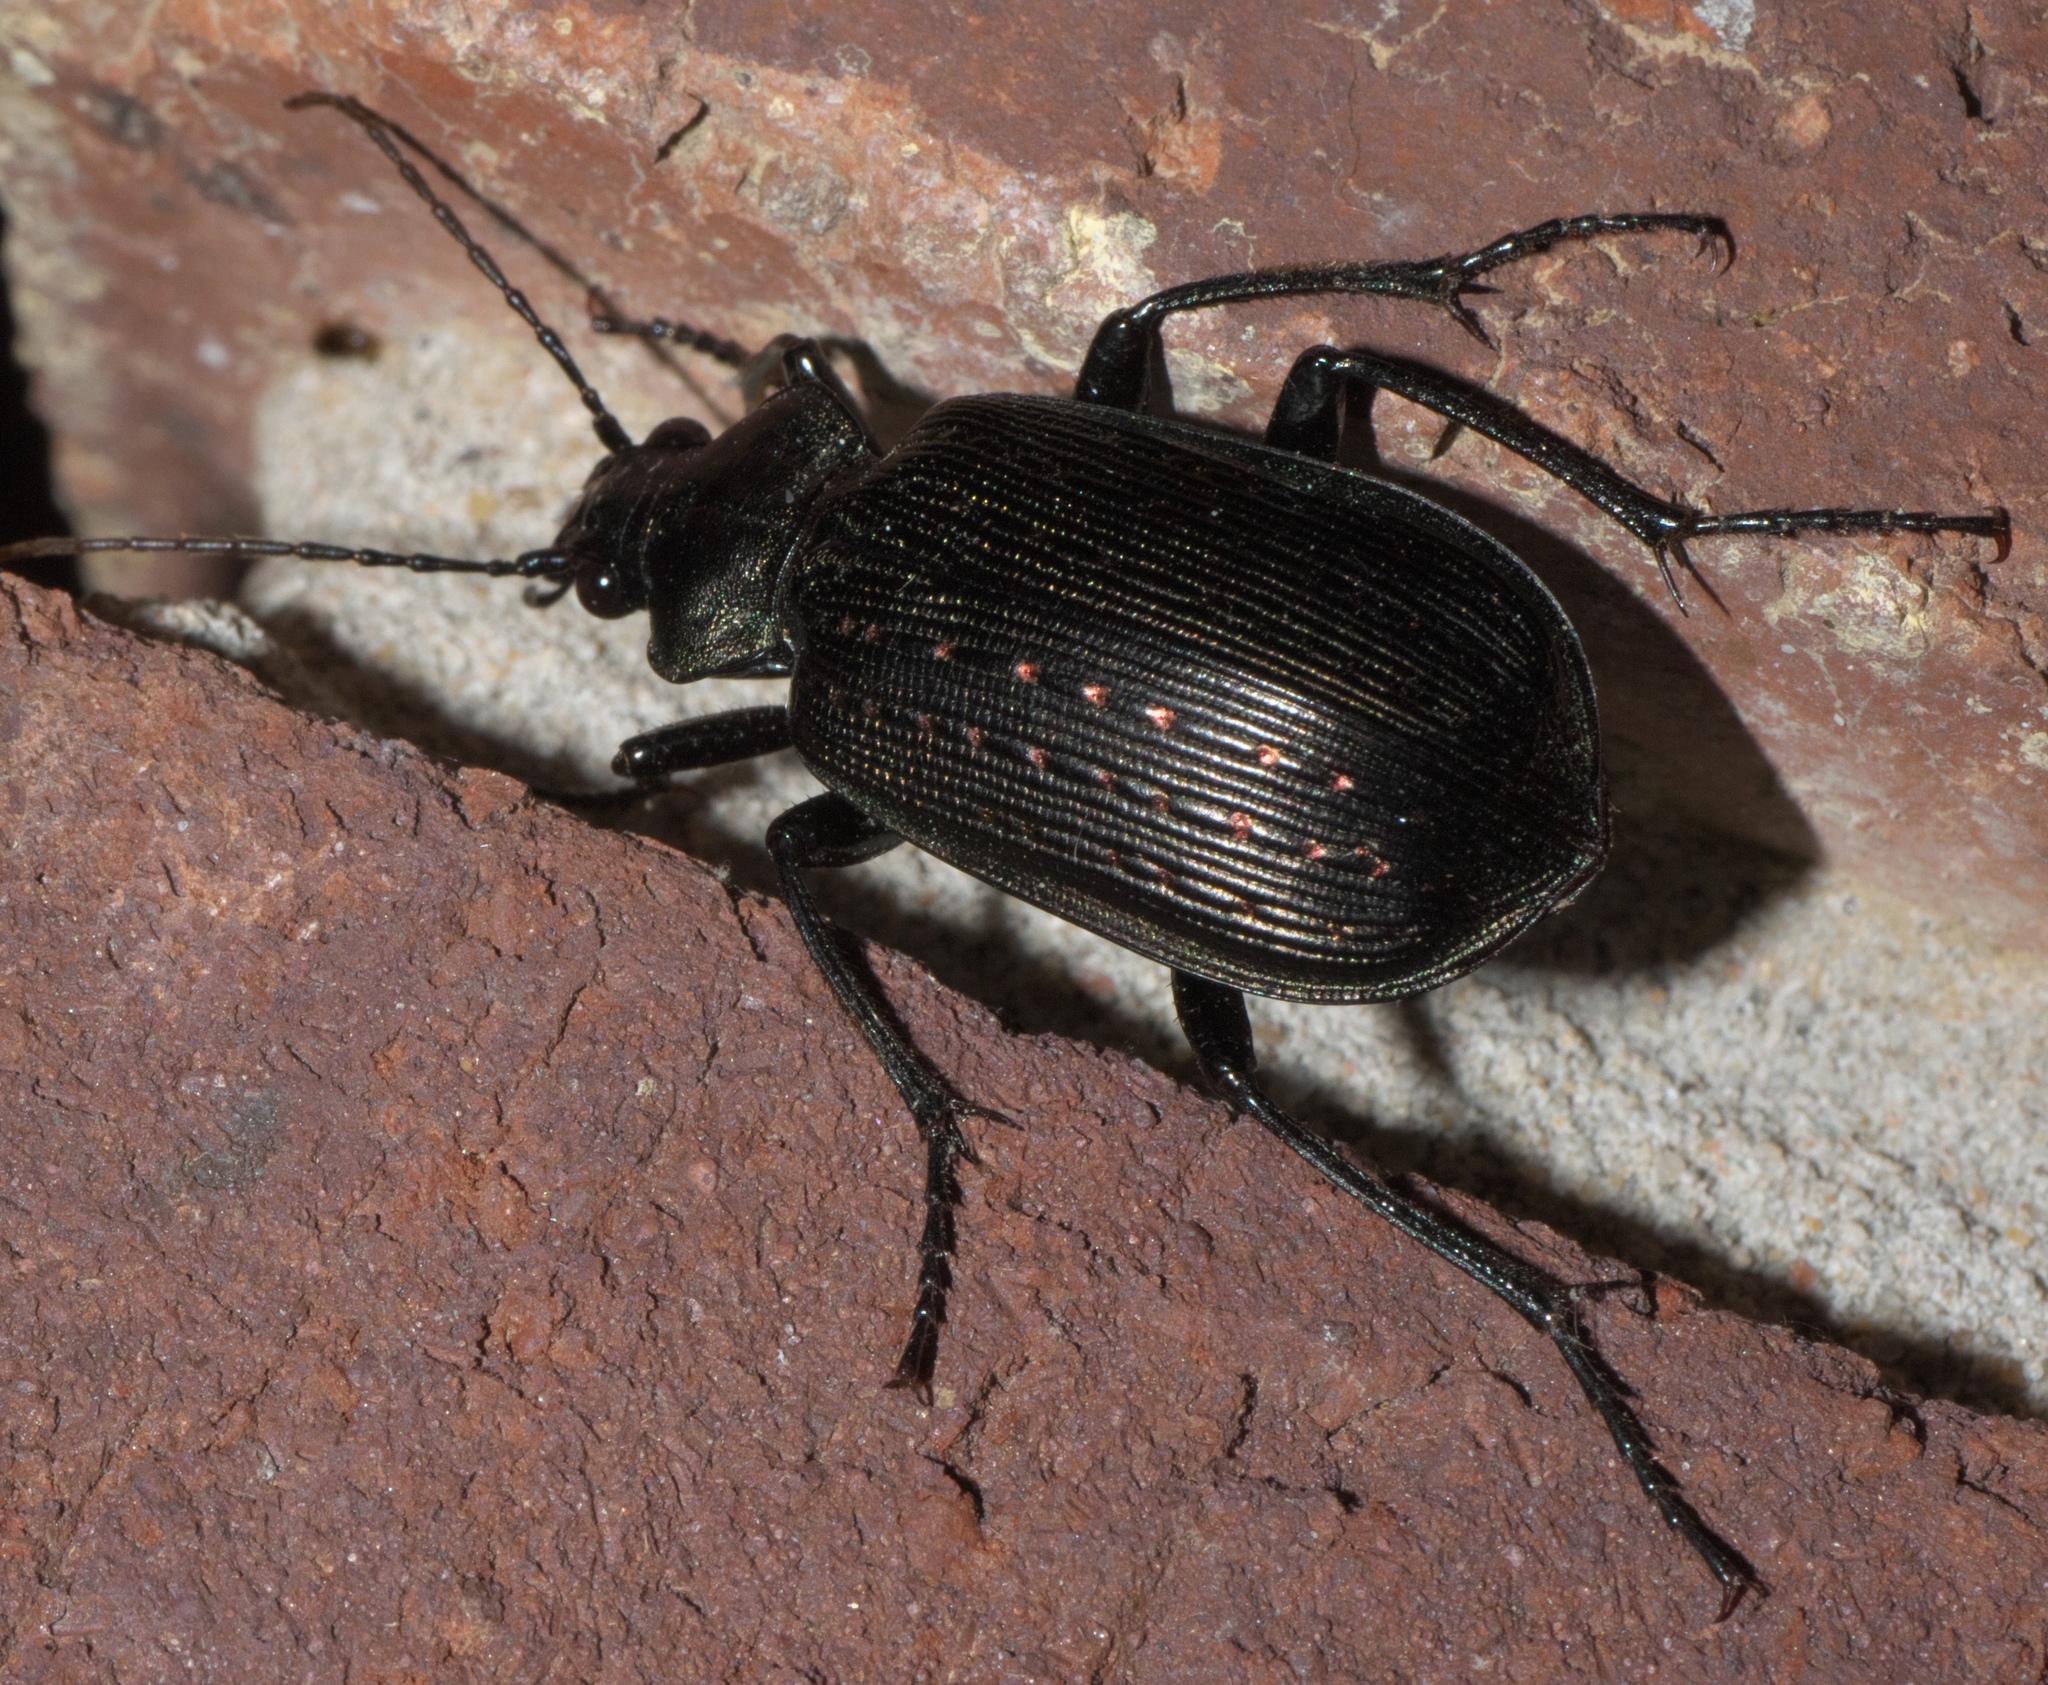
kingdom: Animalia
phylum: Arthropoda
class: Insecta
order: Coleoptera
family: Carabidae
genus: Calosoma
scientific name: Calosoma sayi
